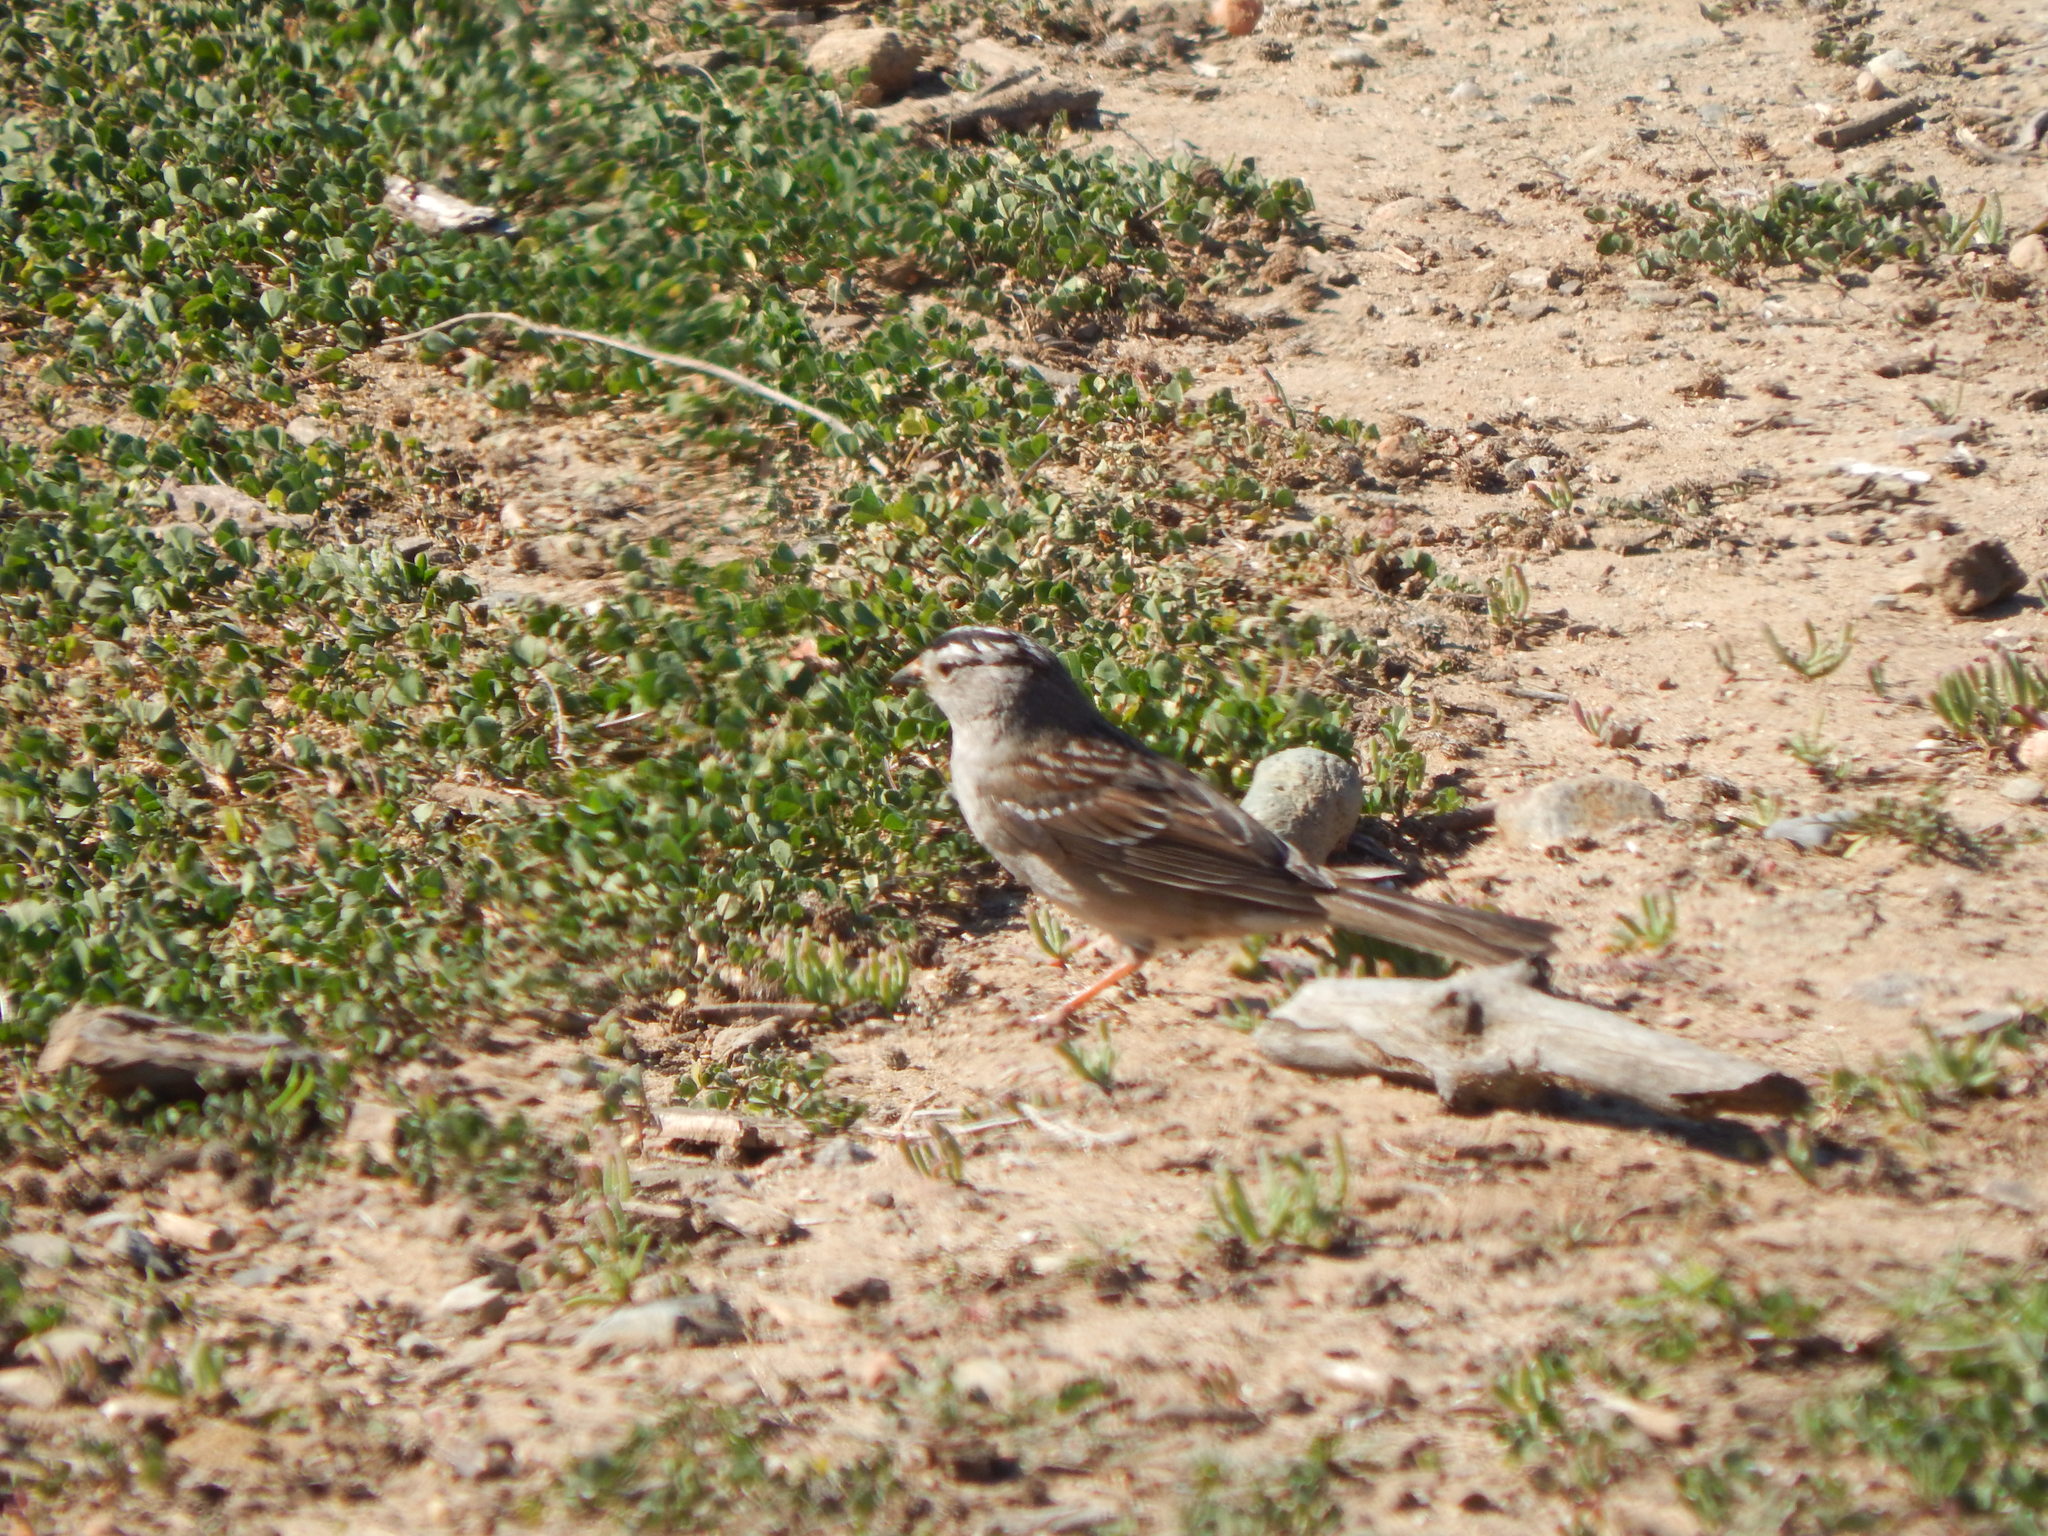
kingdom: Animalia
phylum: Chordata
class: Aves
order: Passeriformes
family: Passerellidae
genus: Zonotrichia
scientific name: Zonotrichia leucophrys
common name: White-crowned sparrow
